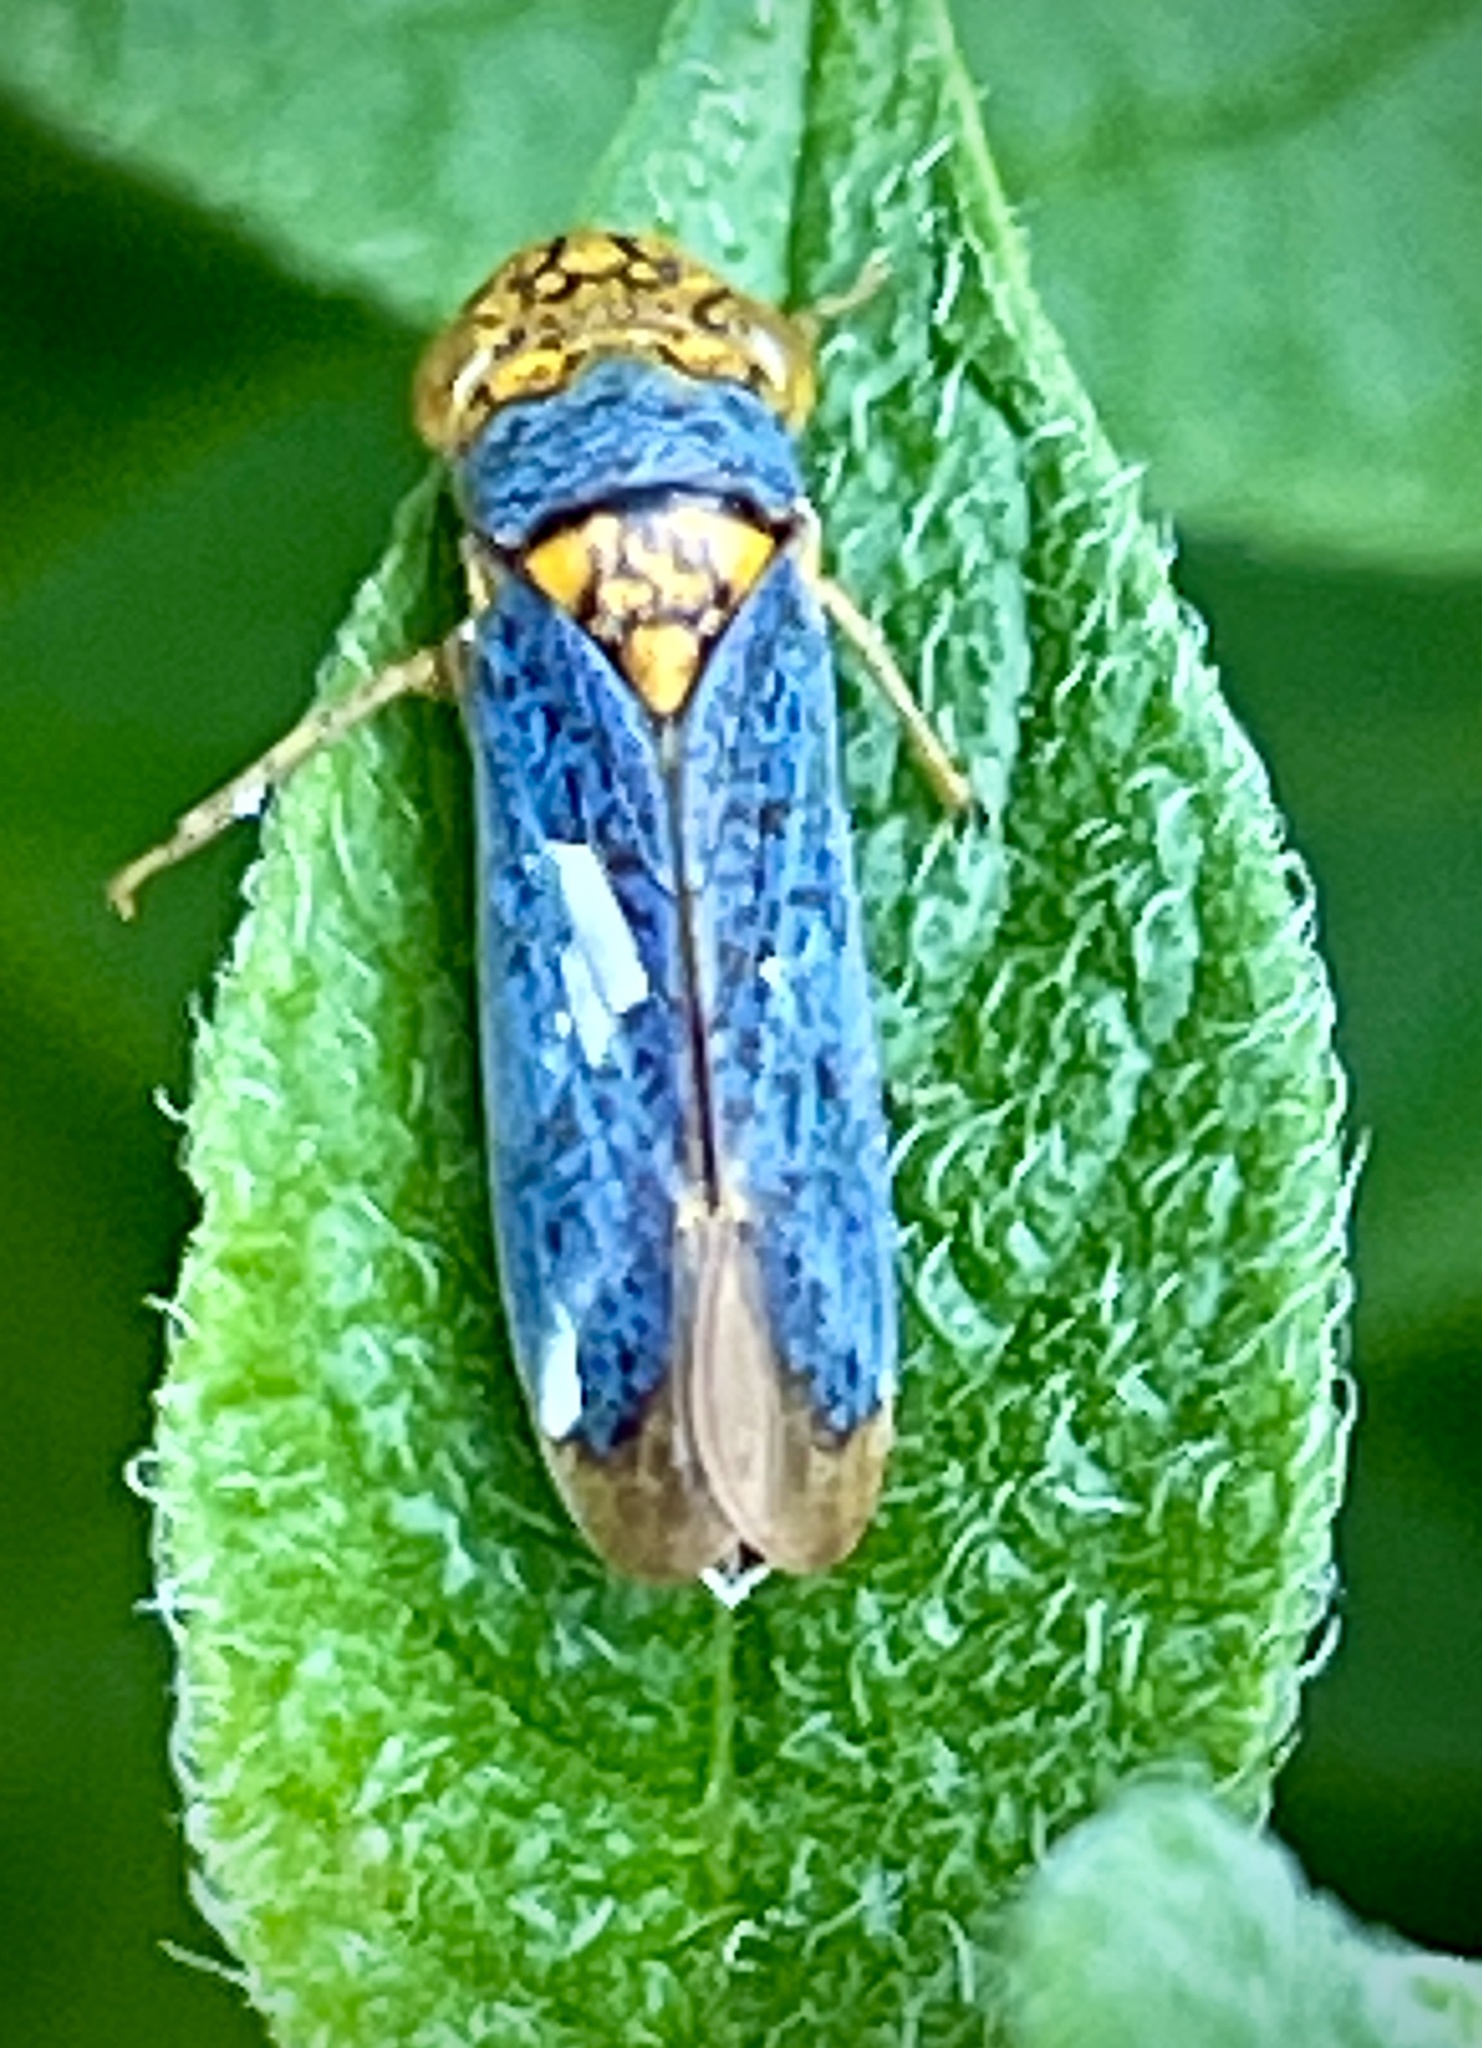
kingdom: Animalia
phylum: Arthropoda
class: Insecta
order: Hemiptera
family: Cicadellidae
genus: Oncometopia
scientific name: Oncometopia orbona
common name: Broad-headed sharpshooter
